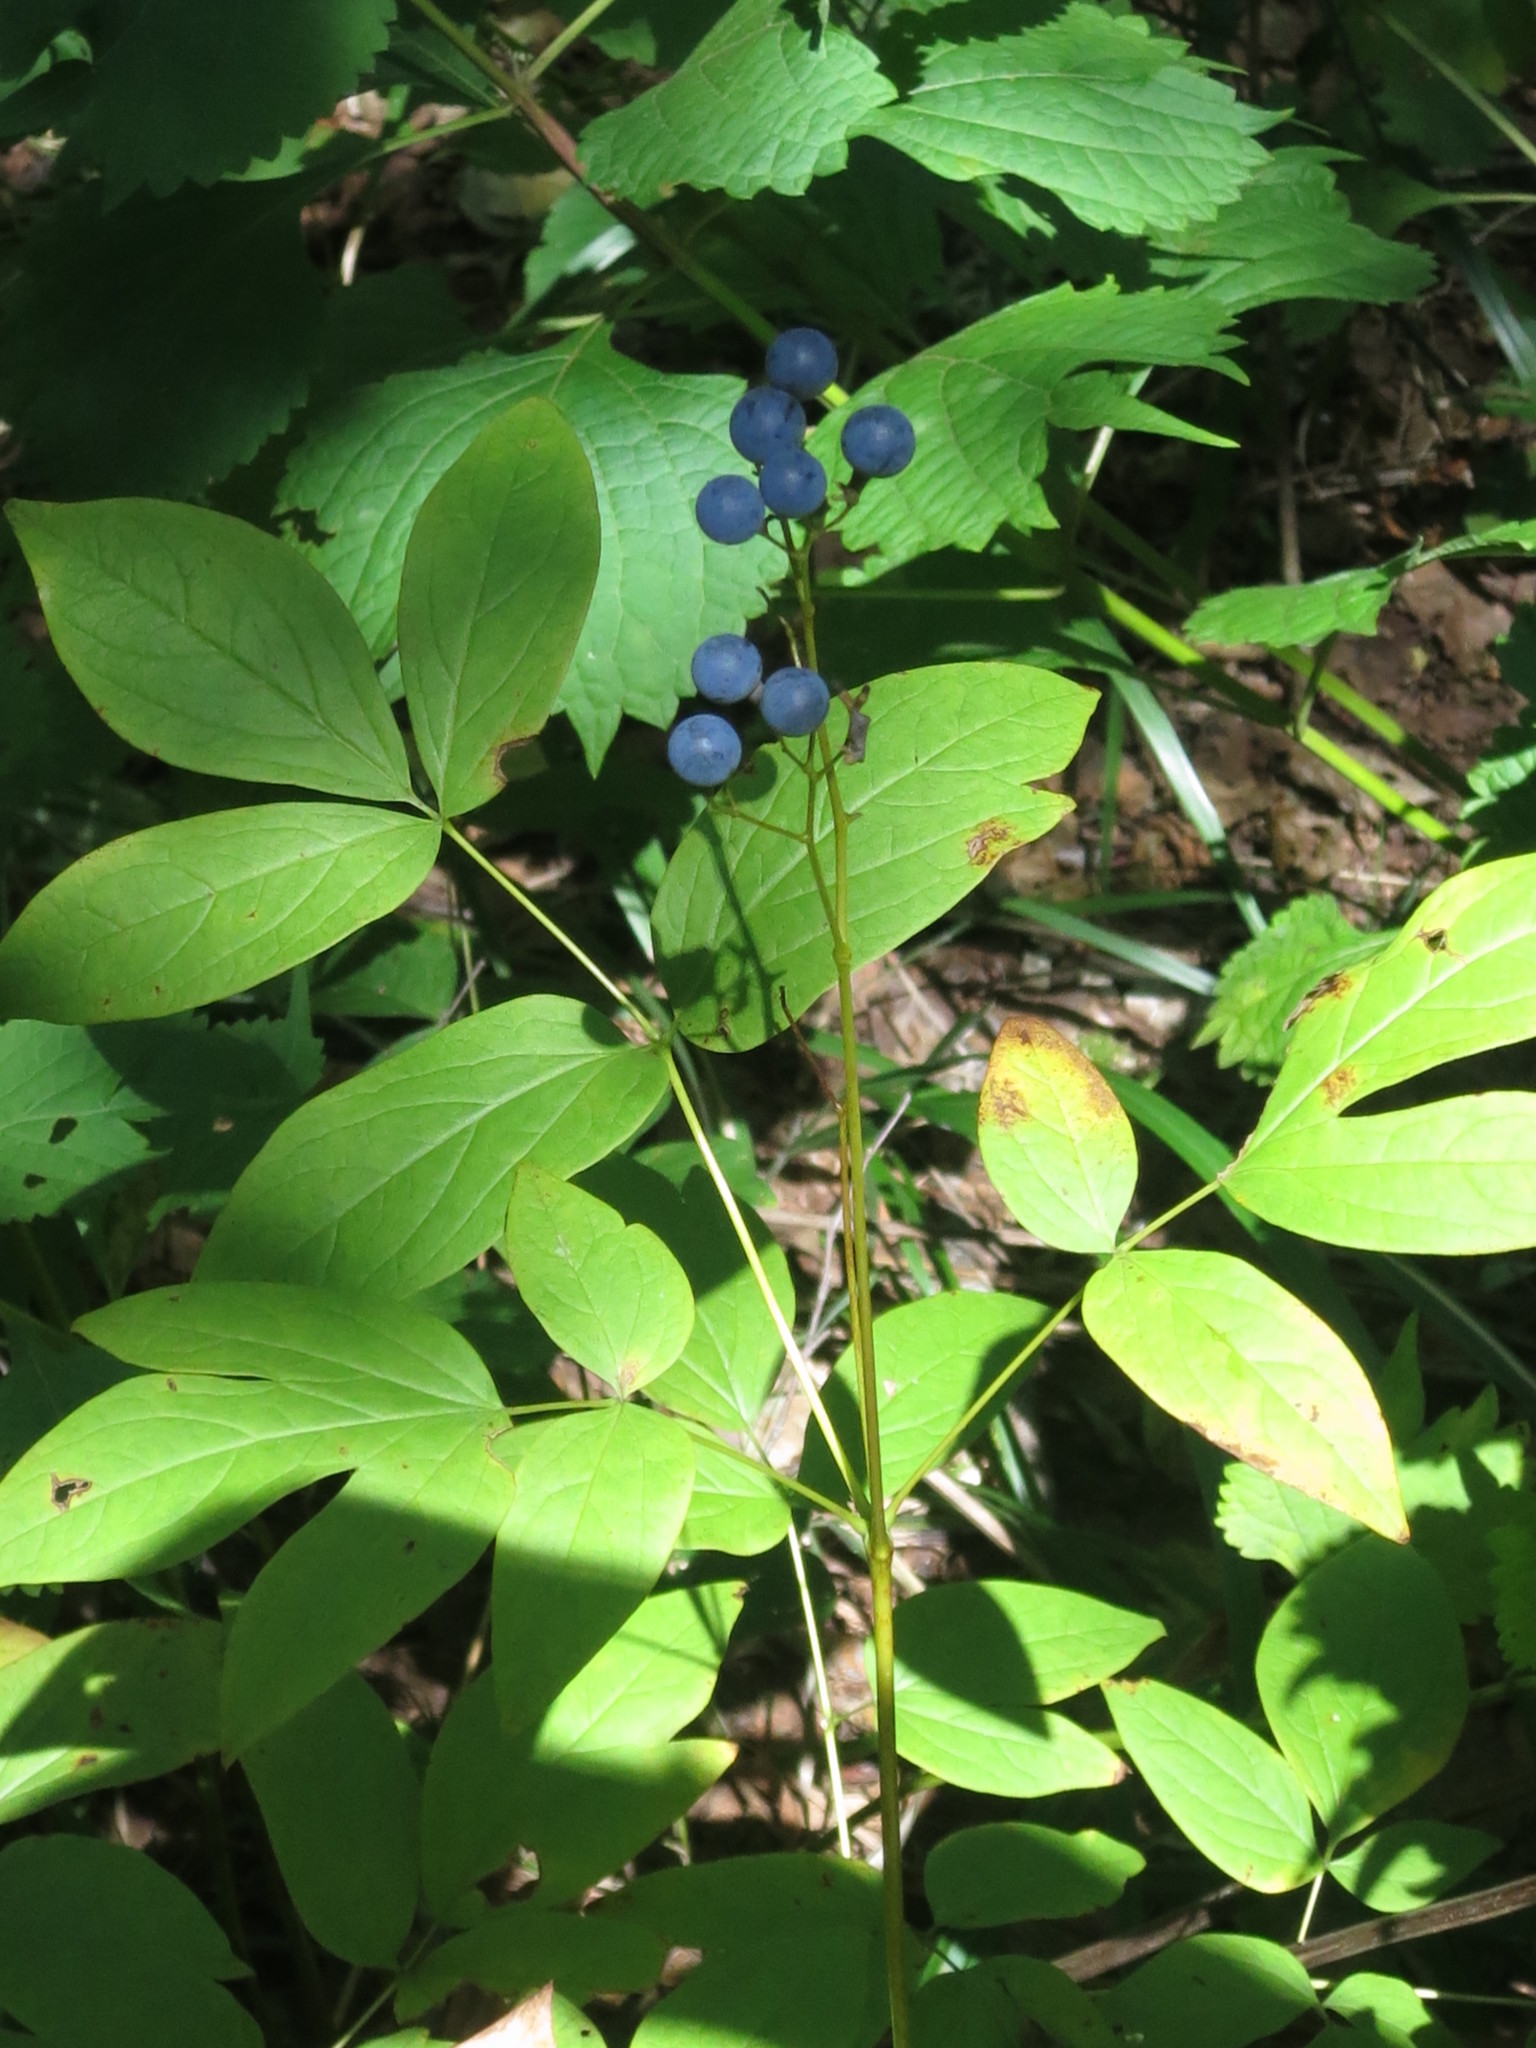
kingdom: Plantae
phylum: Tracheophyta
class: Magnoliopsida
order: Ranunculales
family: Berberidaceae
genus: Caulophyllum
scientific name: Caulophyllum robustum
